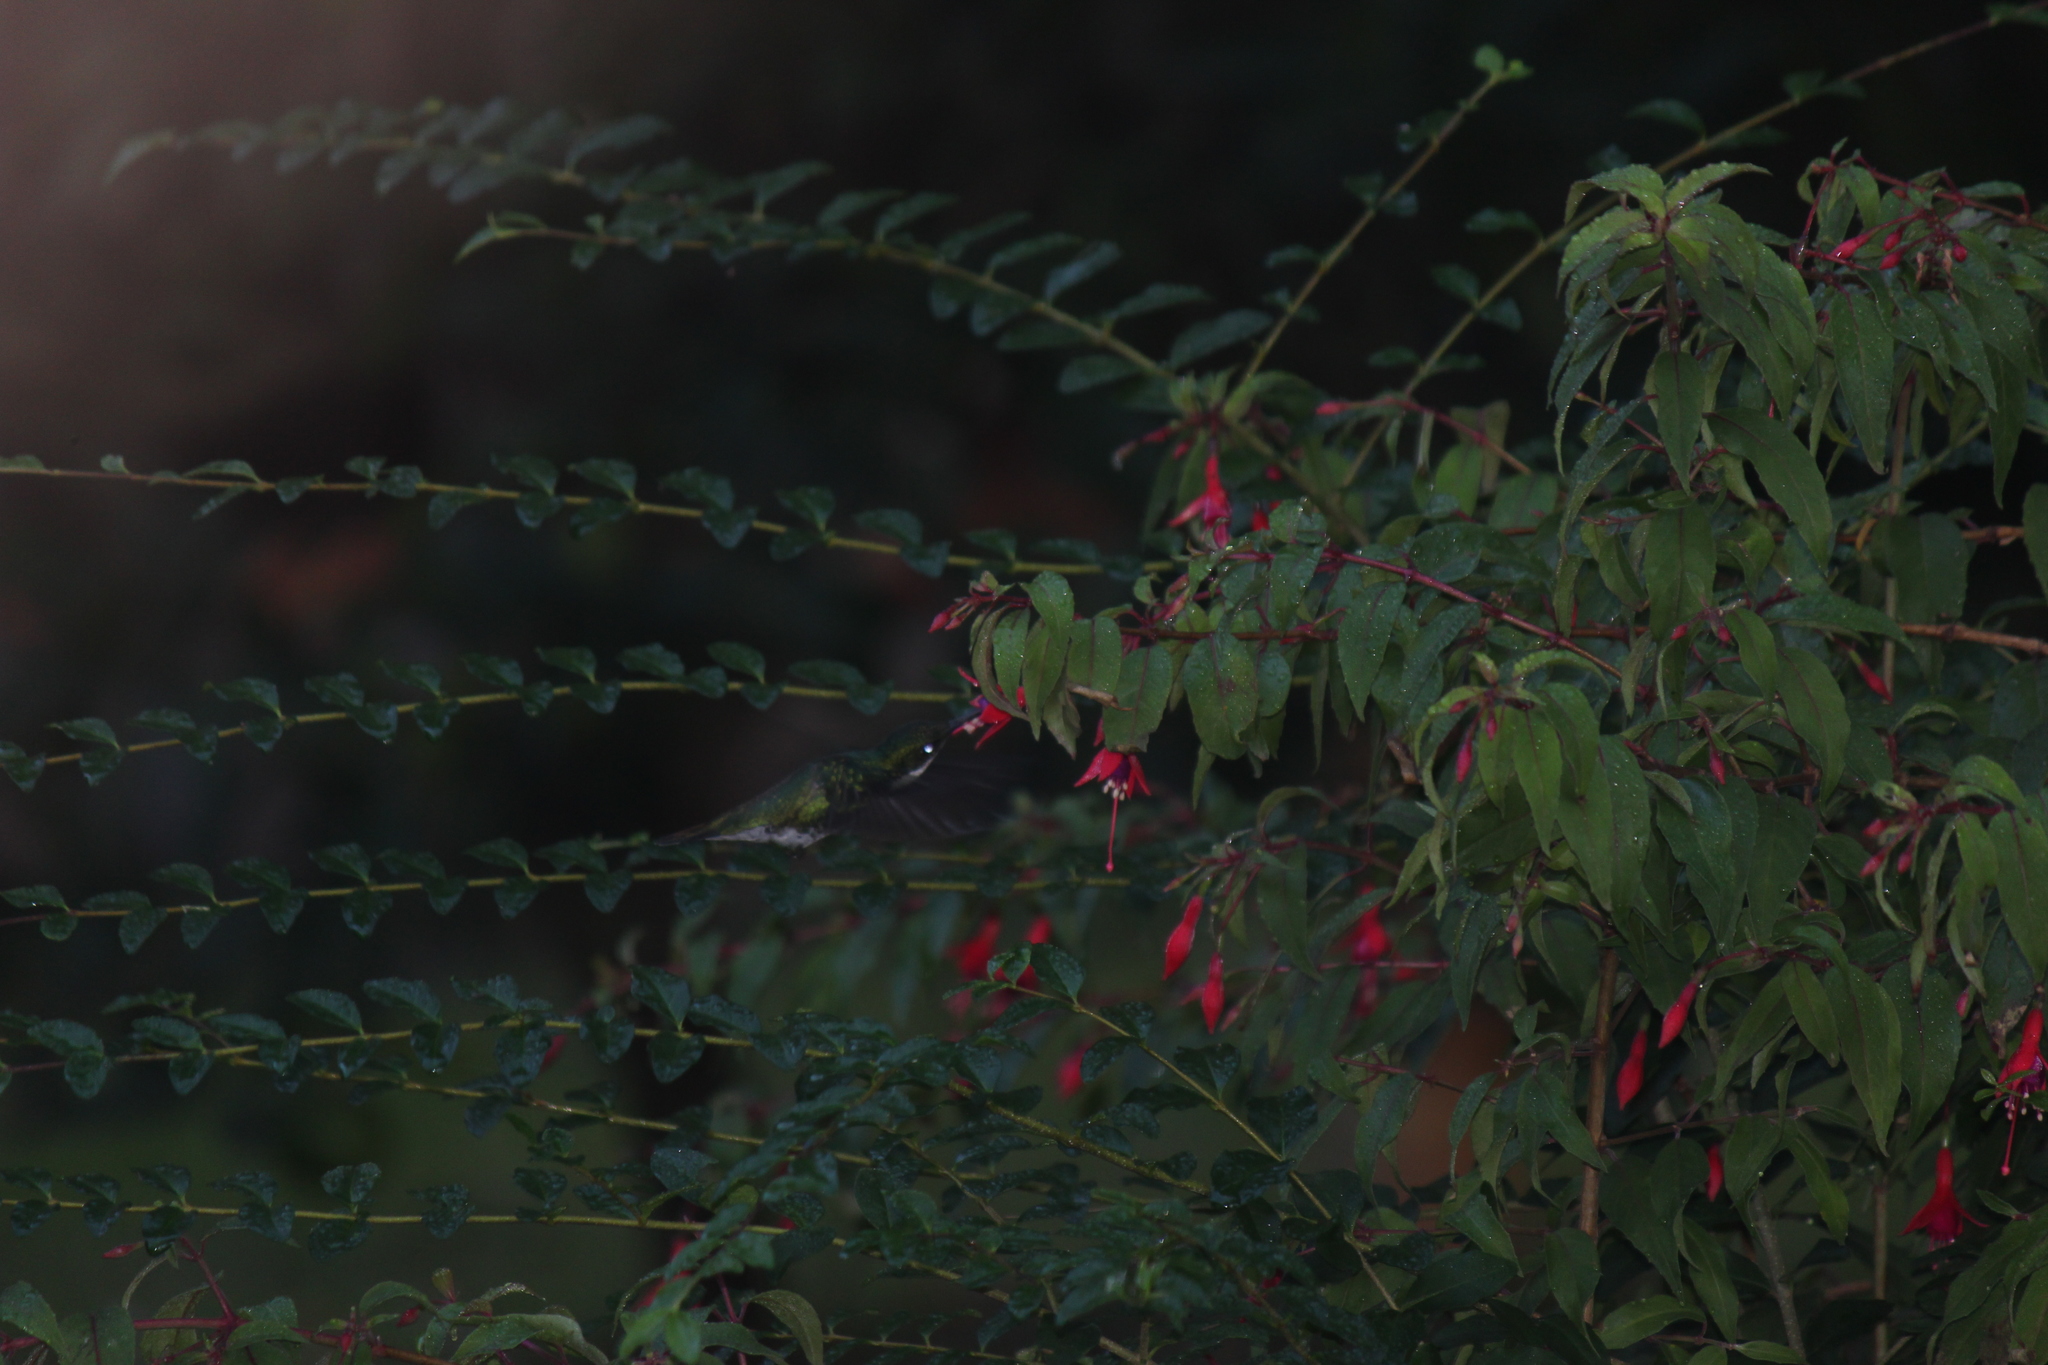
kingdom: Animalia
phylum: Chordata
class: Aves
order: Apodiformes
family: Trochilidae
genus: Leucochloris
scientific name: Leucochloris albicollis
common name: White-throated hummingbird
